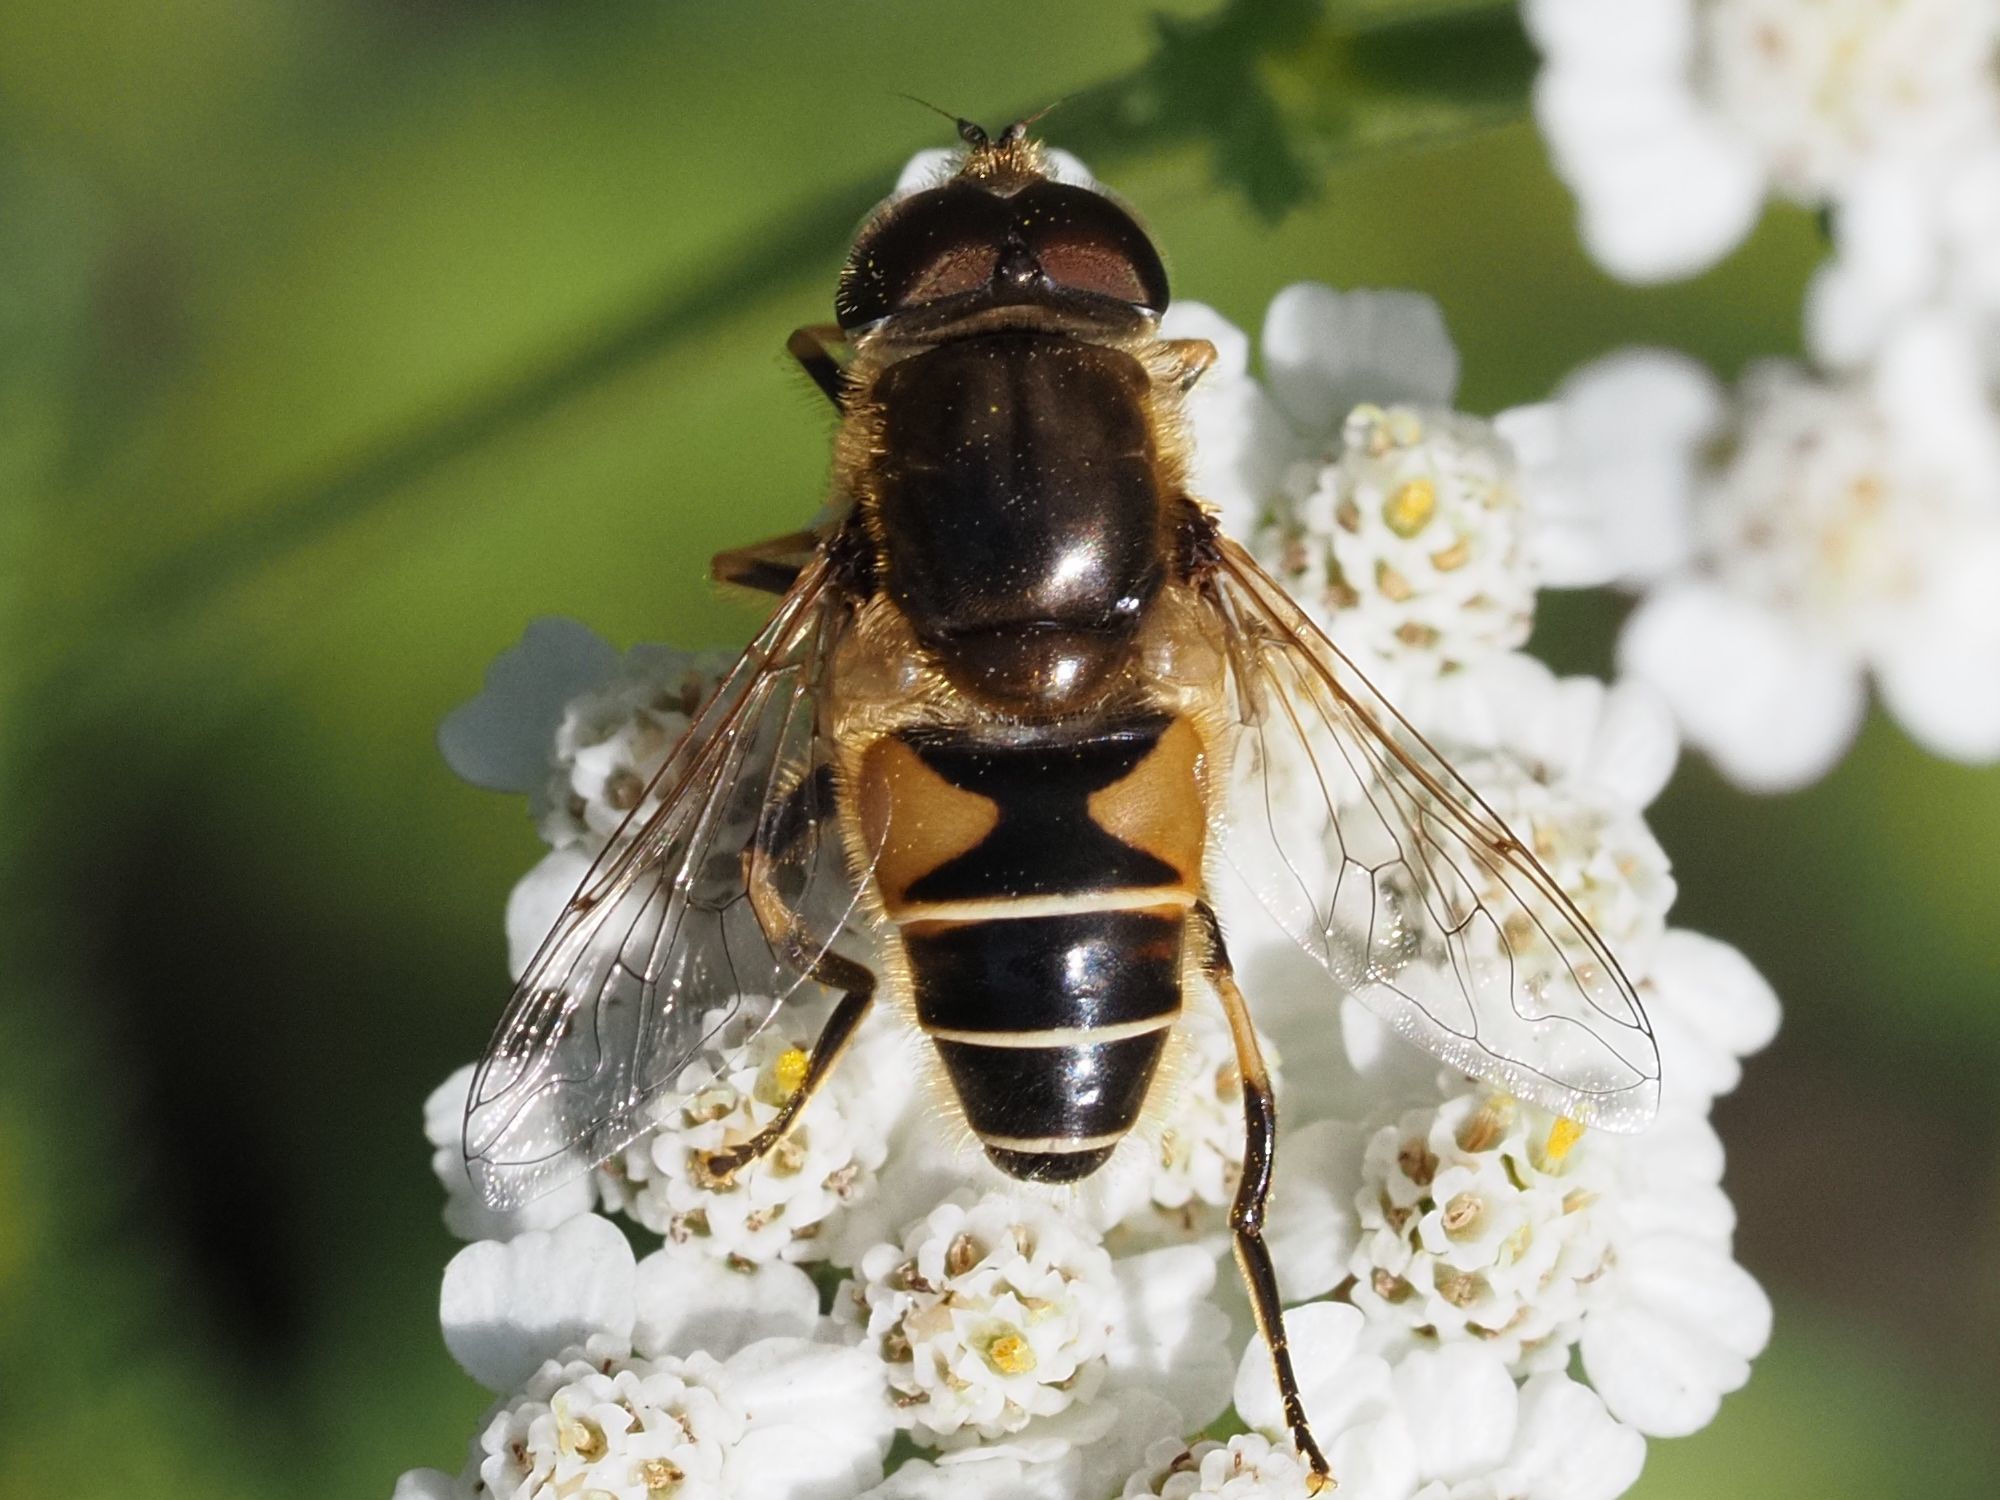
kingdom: Animalia
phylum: Arthropoda
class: Insecta
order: Diptera
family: Syrphidae
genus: Eristalis
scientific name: Eristalis nemorum
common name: Orange-spined drone fly
